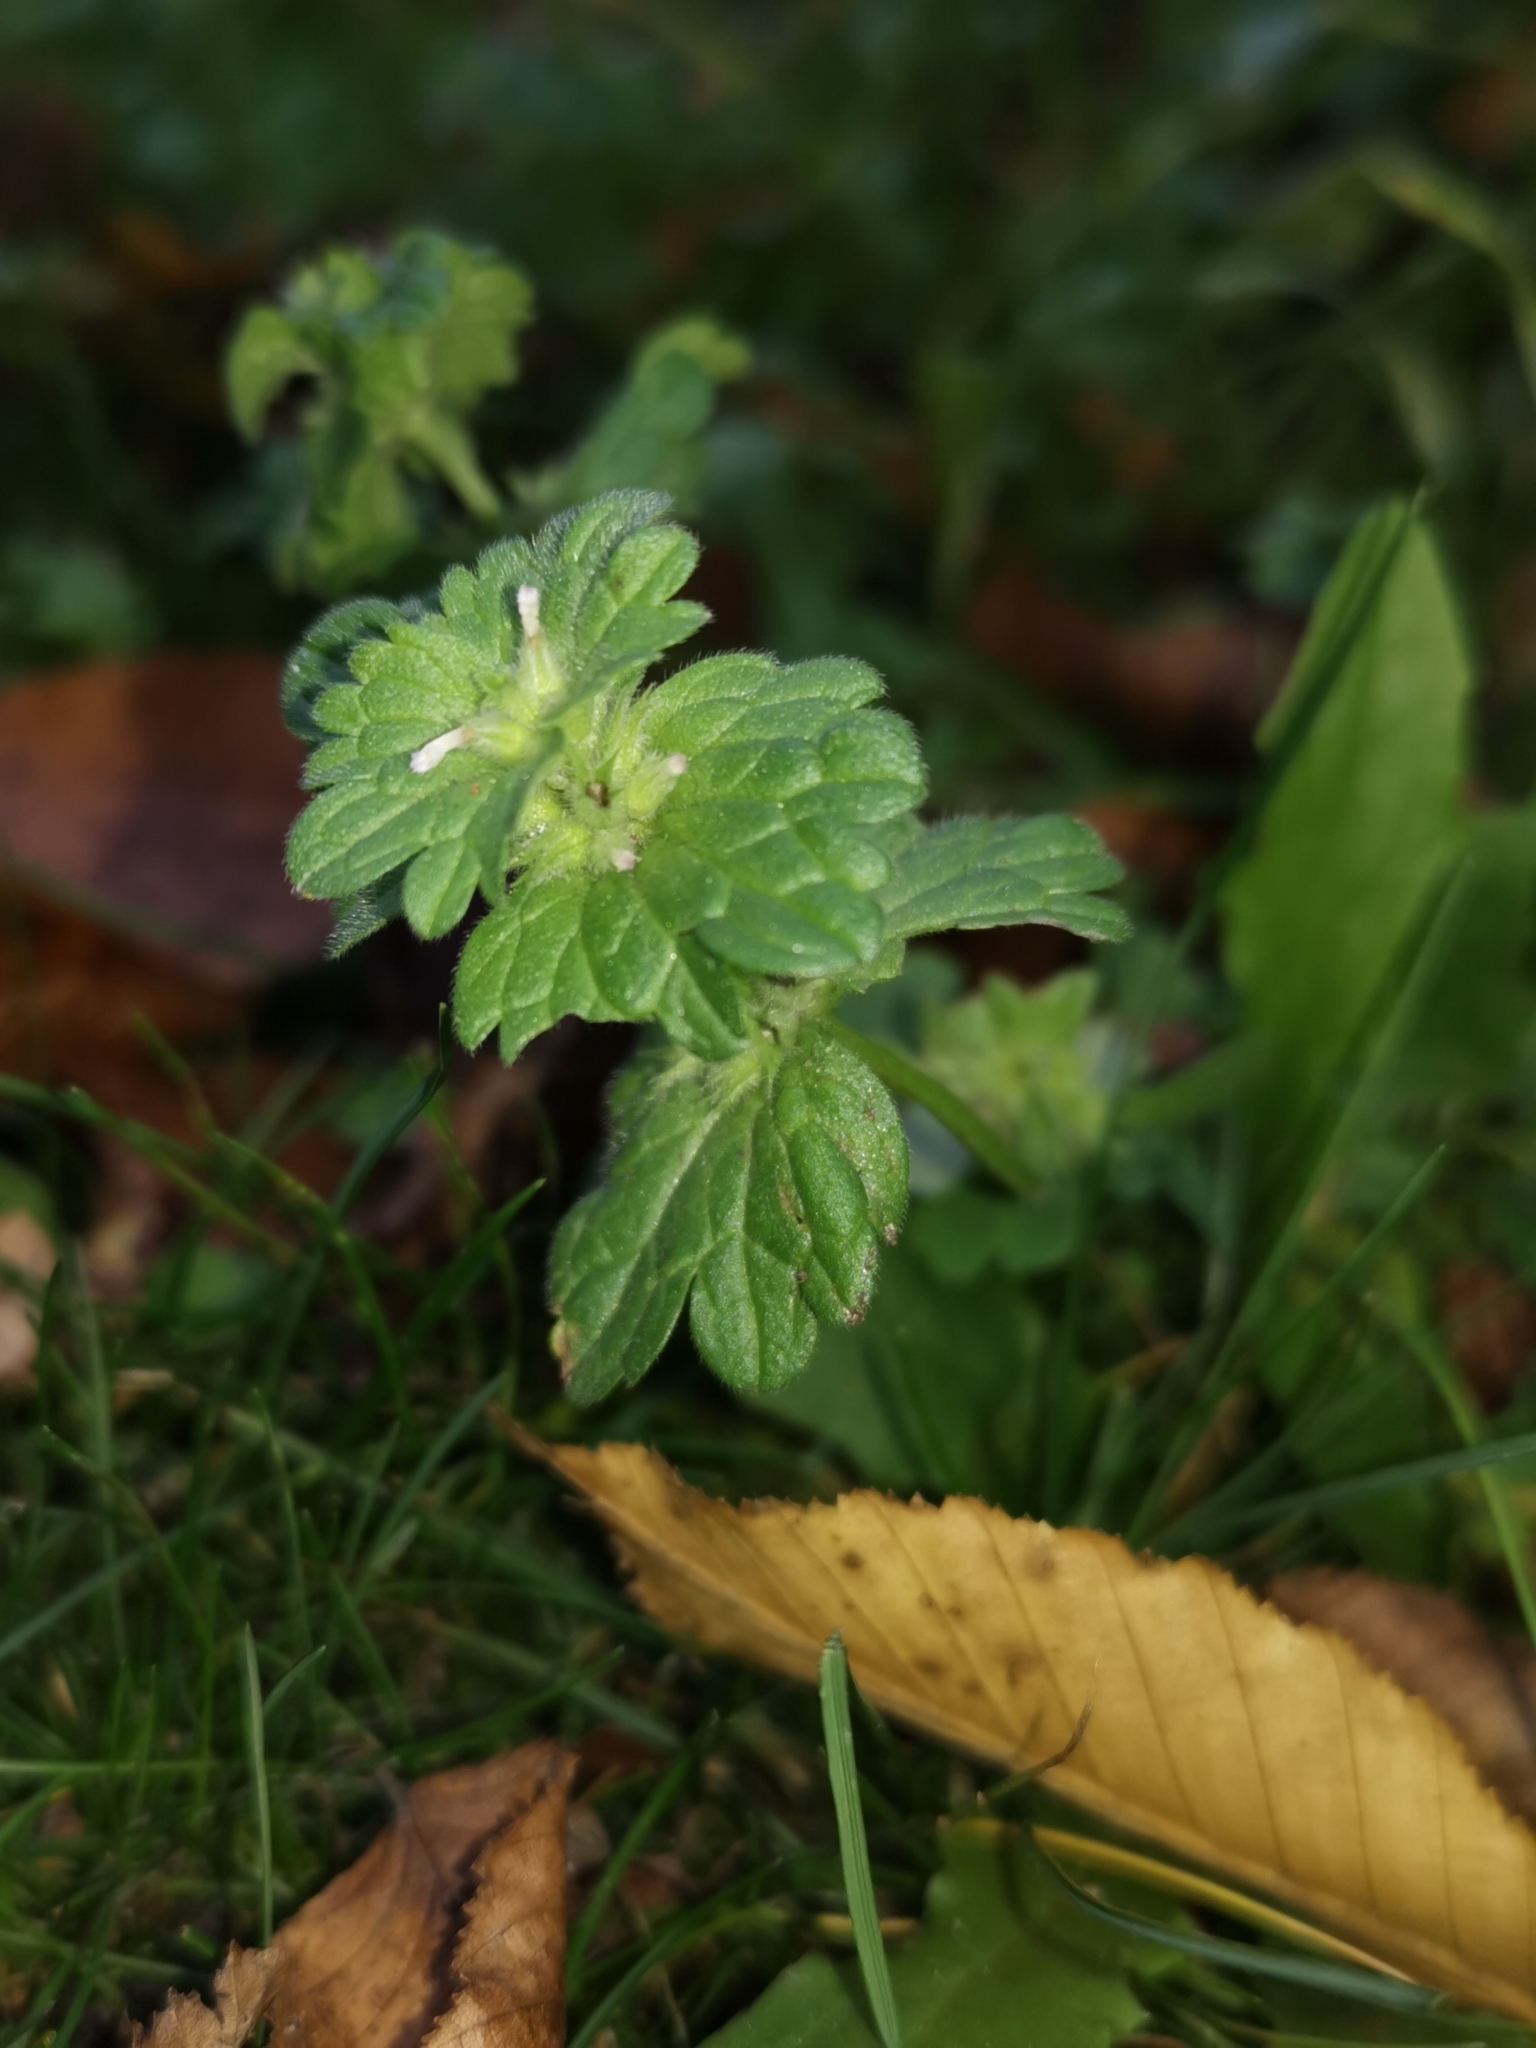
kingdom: Plantae
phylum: Tracheophyta
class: Magnoliopsida
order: Lamiales
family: Lamiaceae
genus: Lamium
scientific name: Lamium amplexicaule
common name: Henbit dead-nettle
